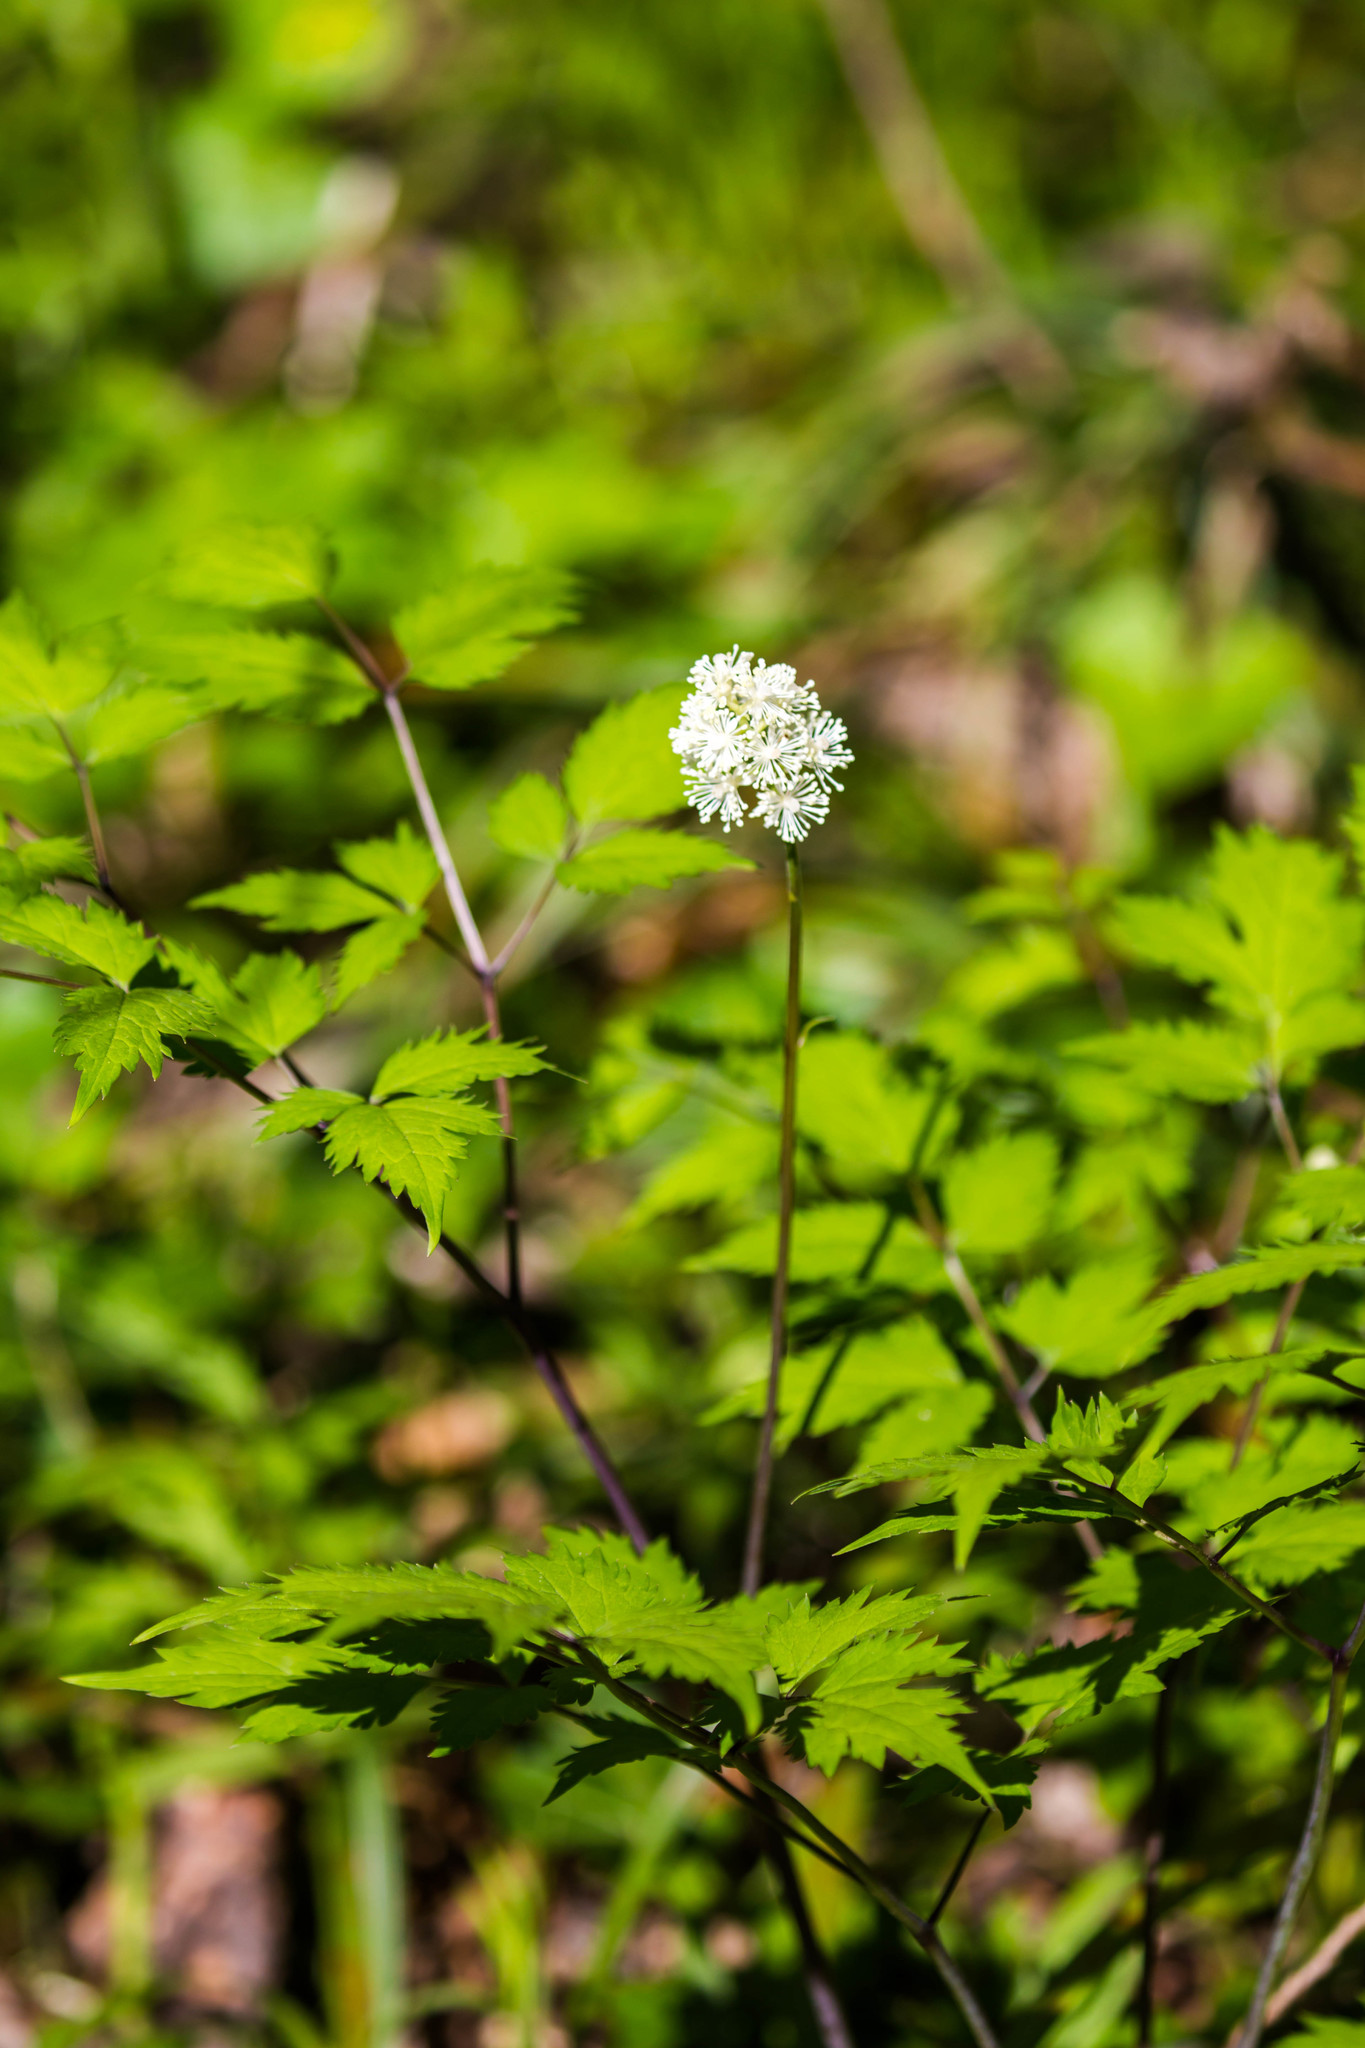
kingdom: Plantae
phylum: Tracheophyta
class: Magnoliopsida
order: Ranunculales
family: Ranunculaceae
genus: Actaea
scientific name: Actaea pachypoda
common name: Doll's-eyes
